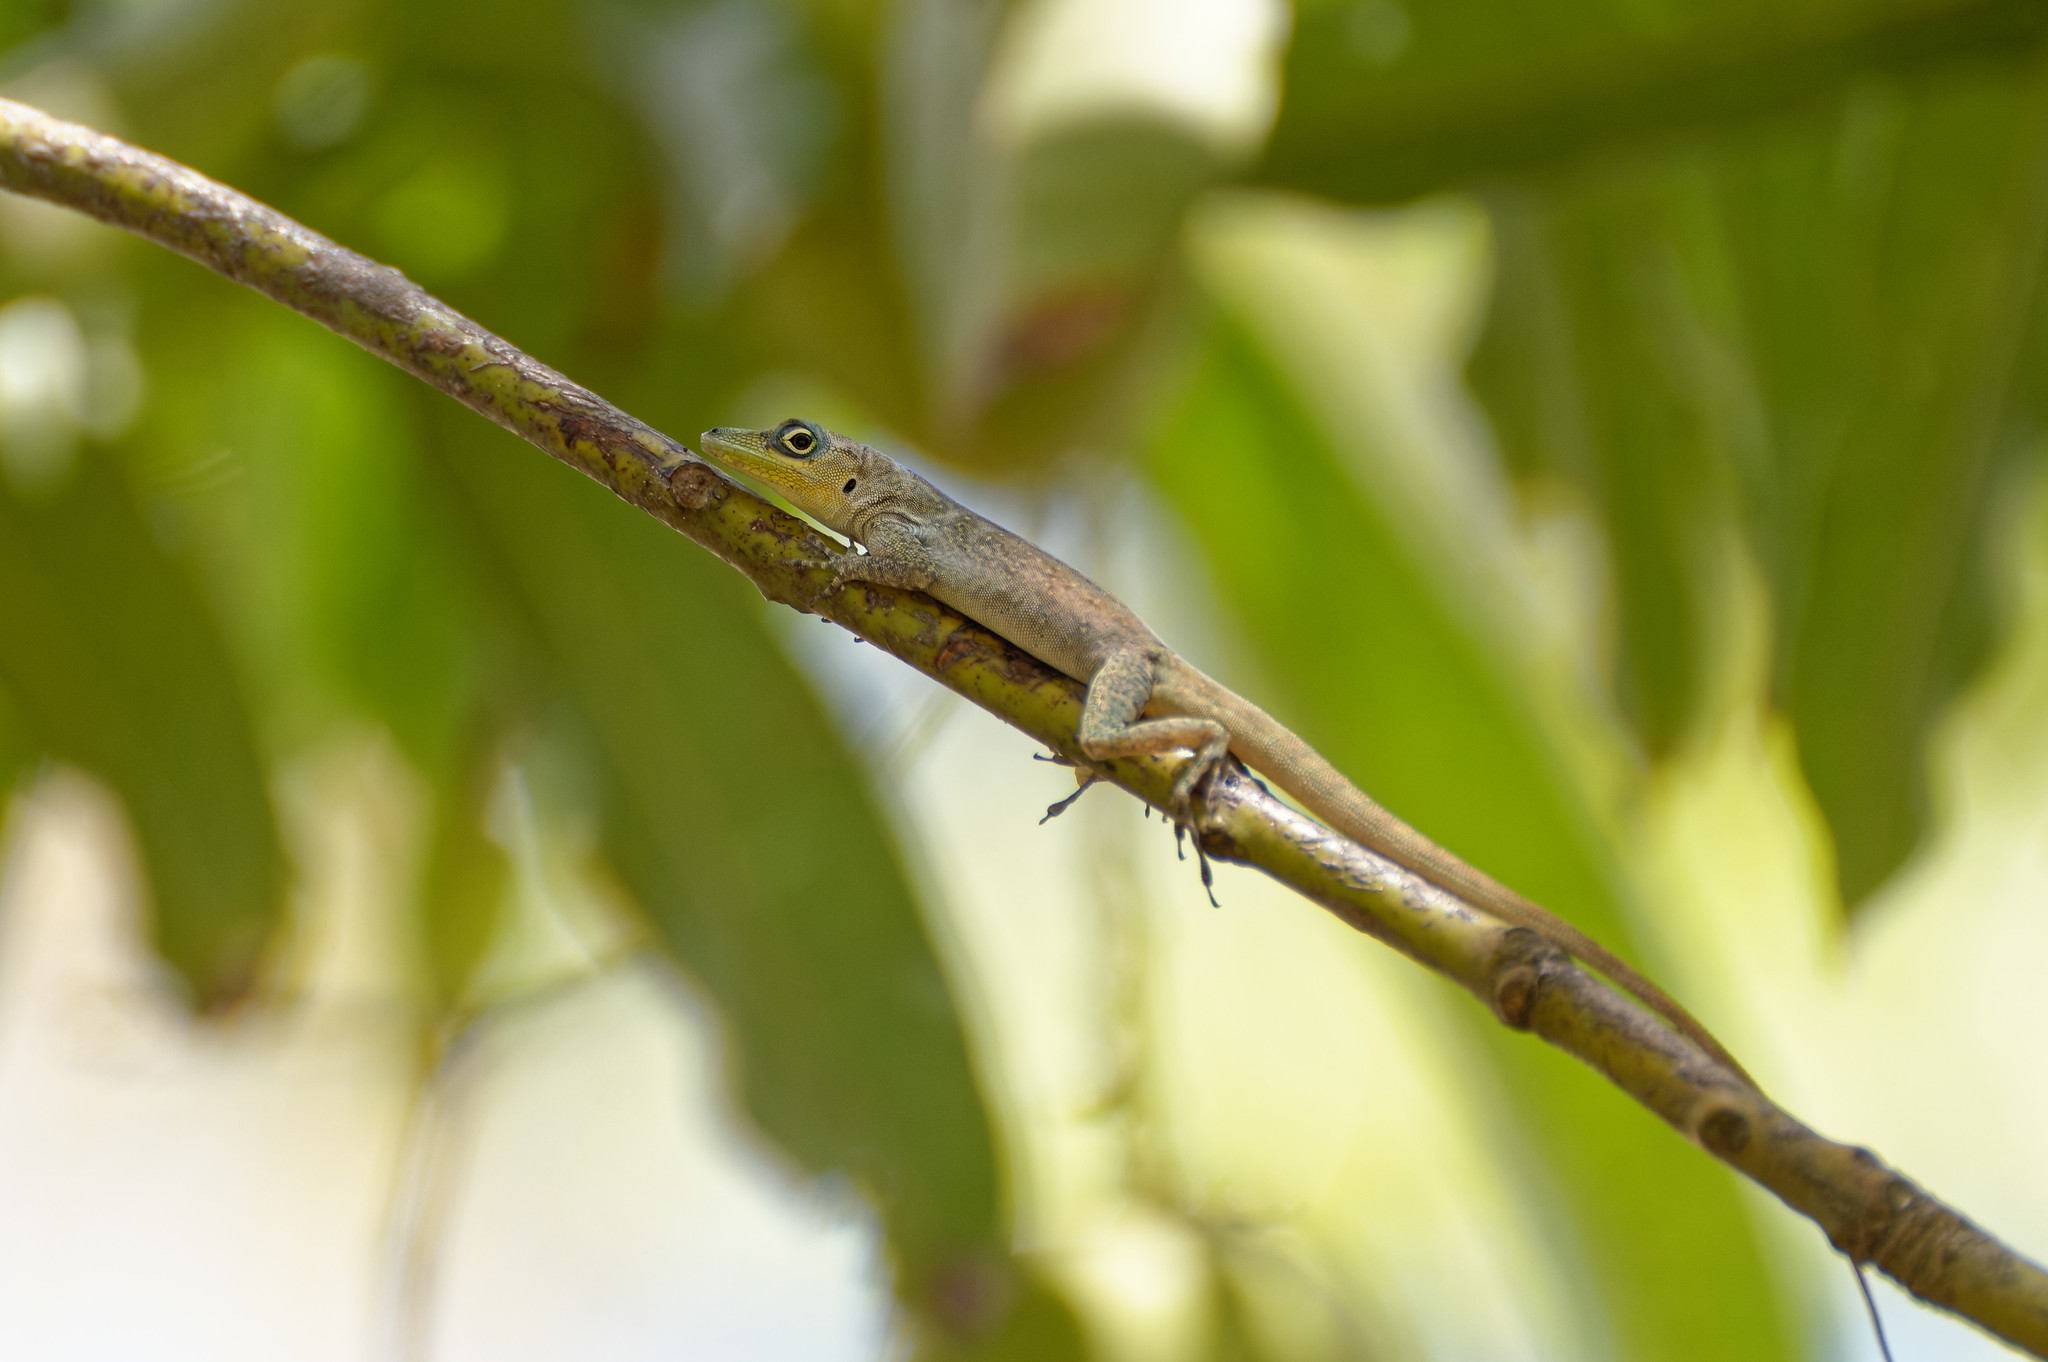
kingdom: Animalia
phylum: Chordata
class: Squamata
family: Dactyloidae
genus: Anolis
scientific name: Anolis roquet
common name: Martinique anole
